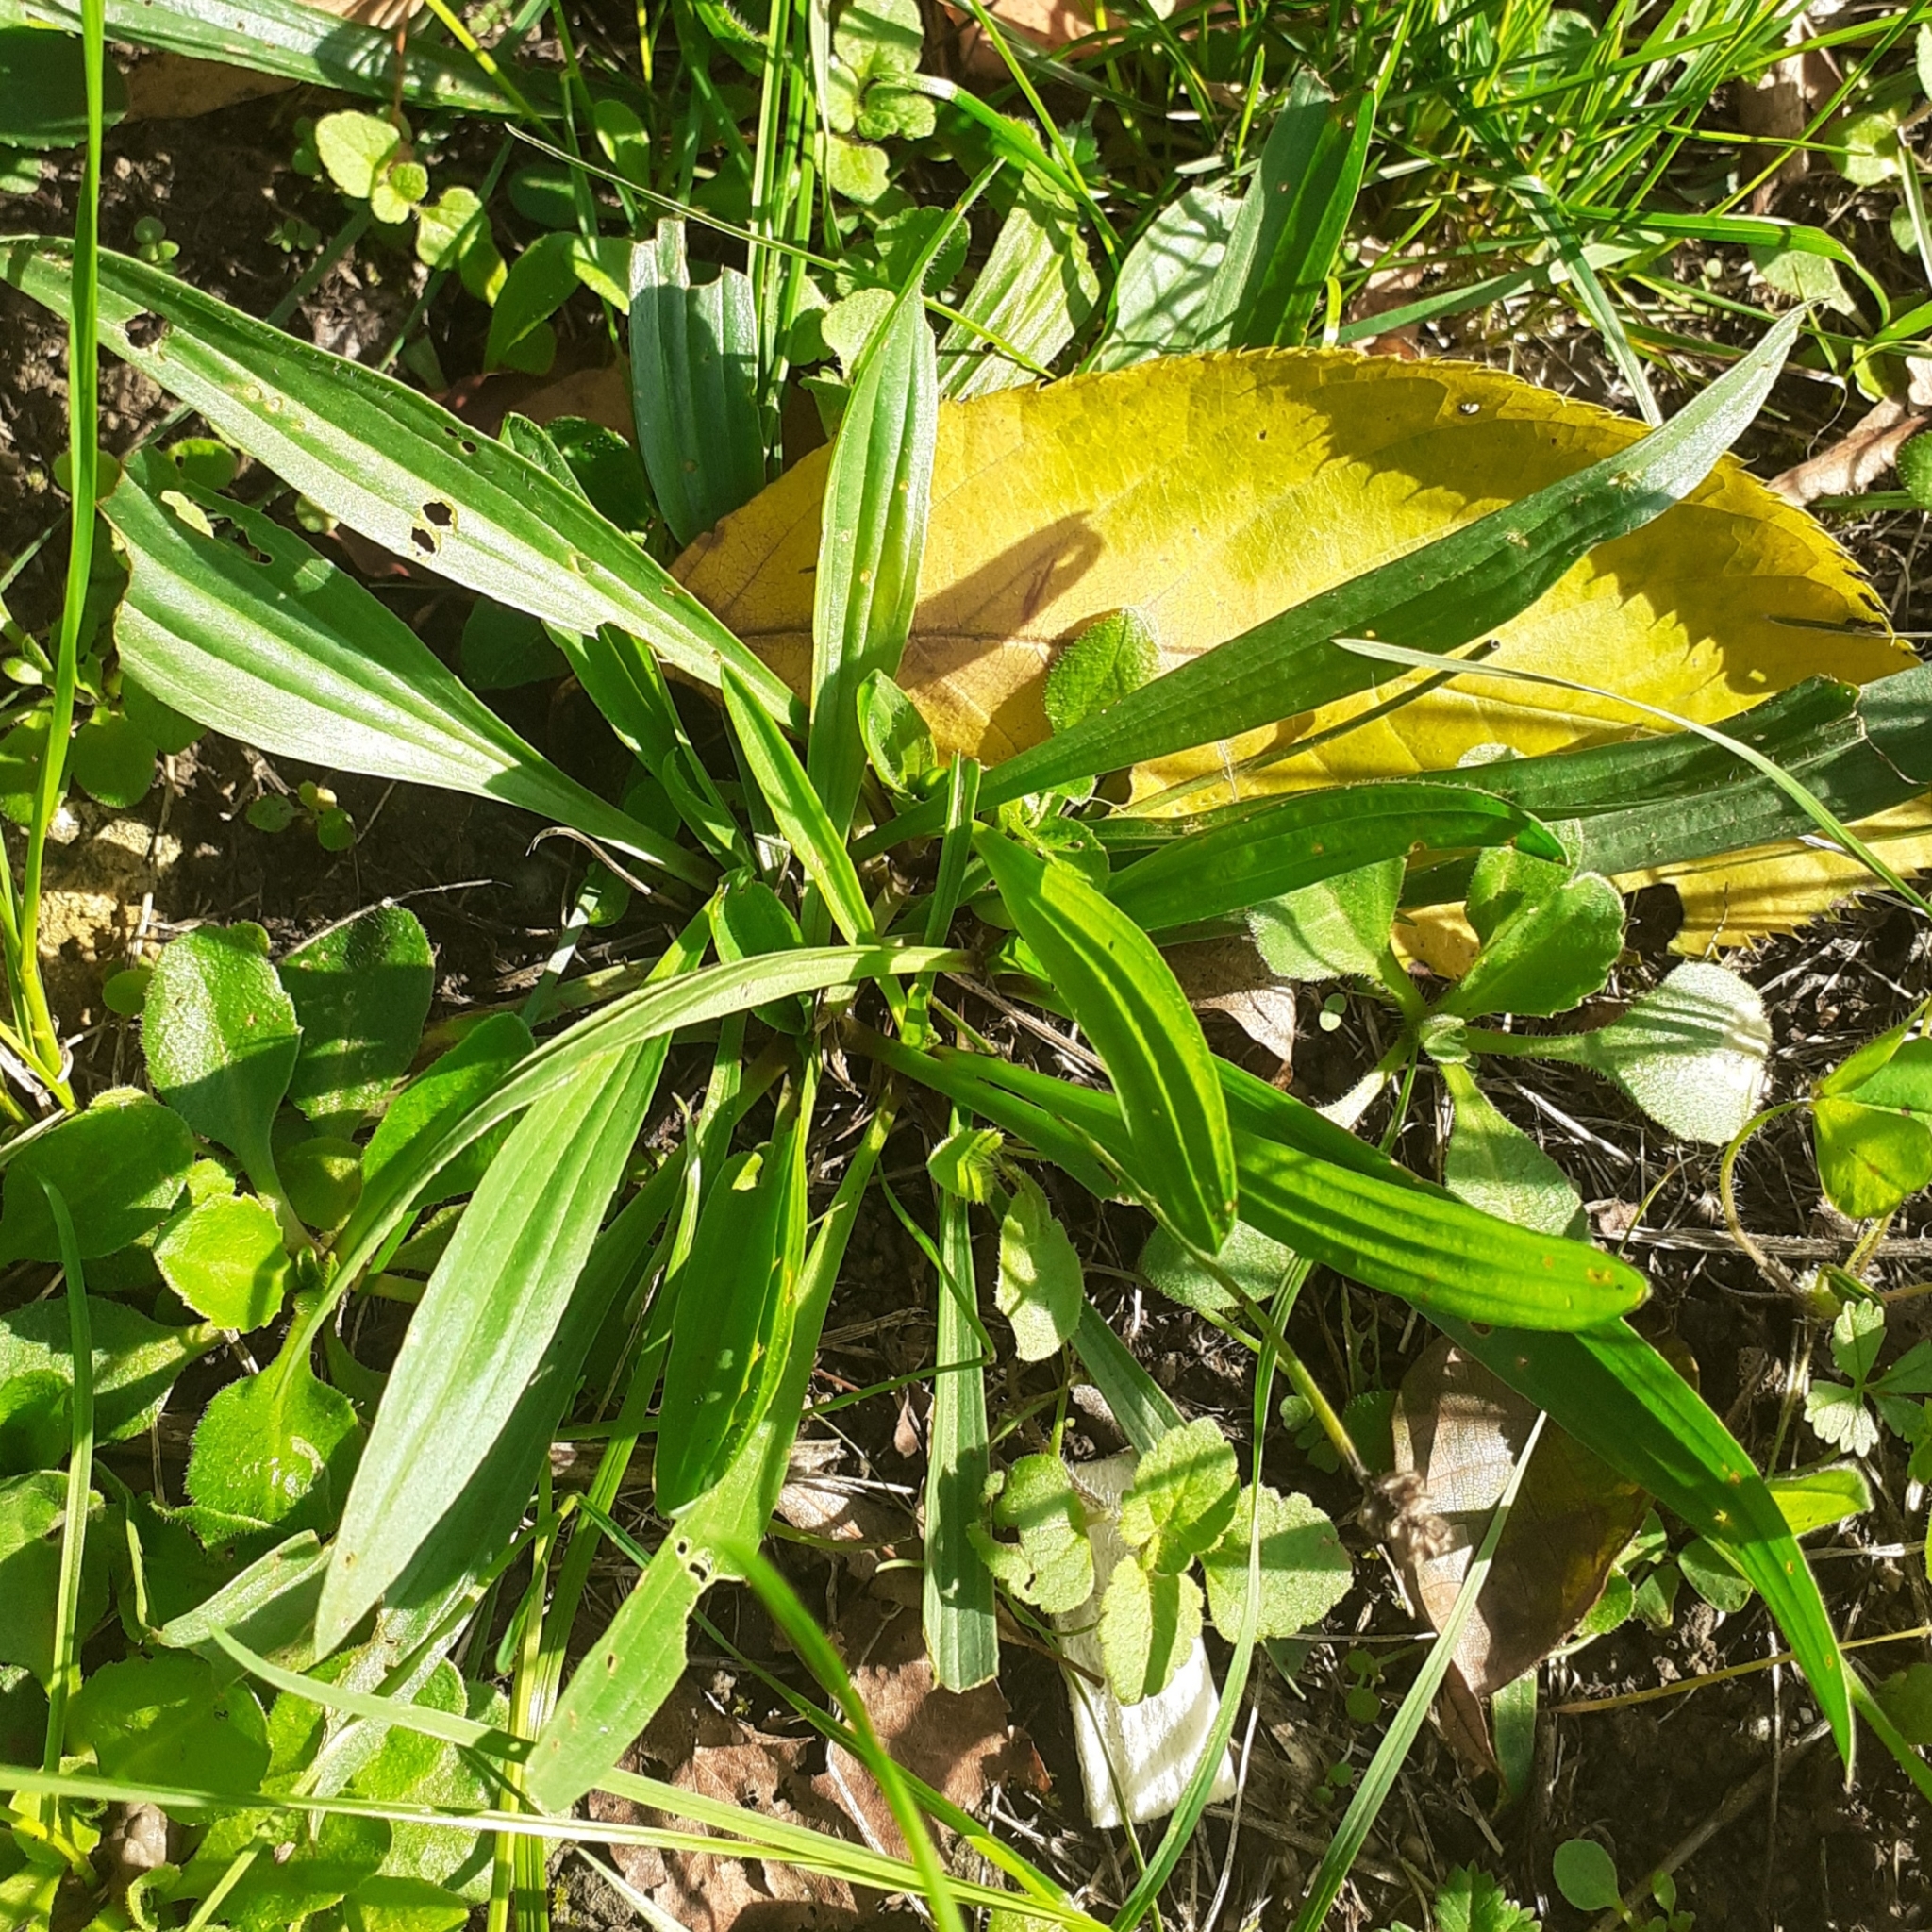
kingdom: Plantae
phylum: Tracheophyta
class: Magnoliopsida
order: Lamiales
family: Plantaginaceae
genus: Plantago
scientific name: Plantago lanceolata
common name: Ribwort plantain
